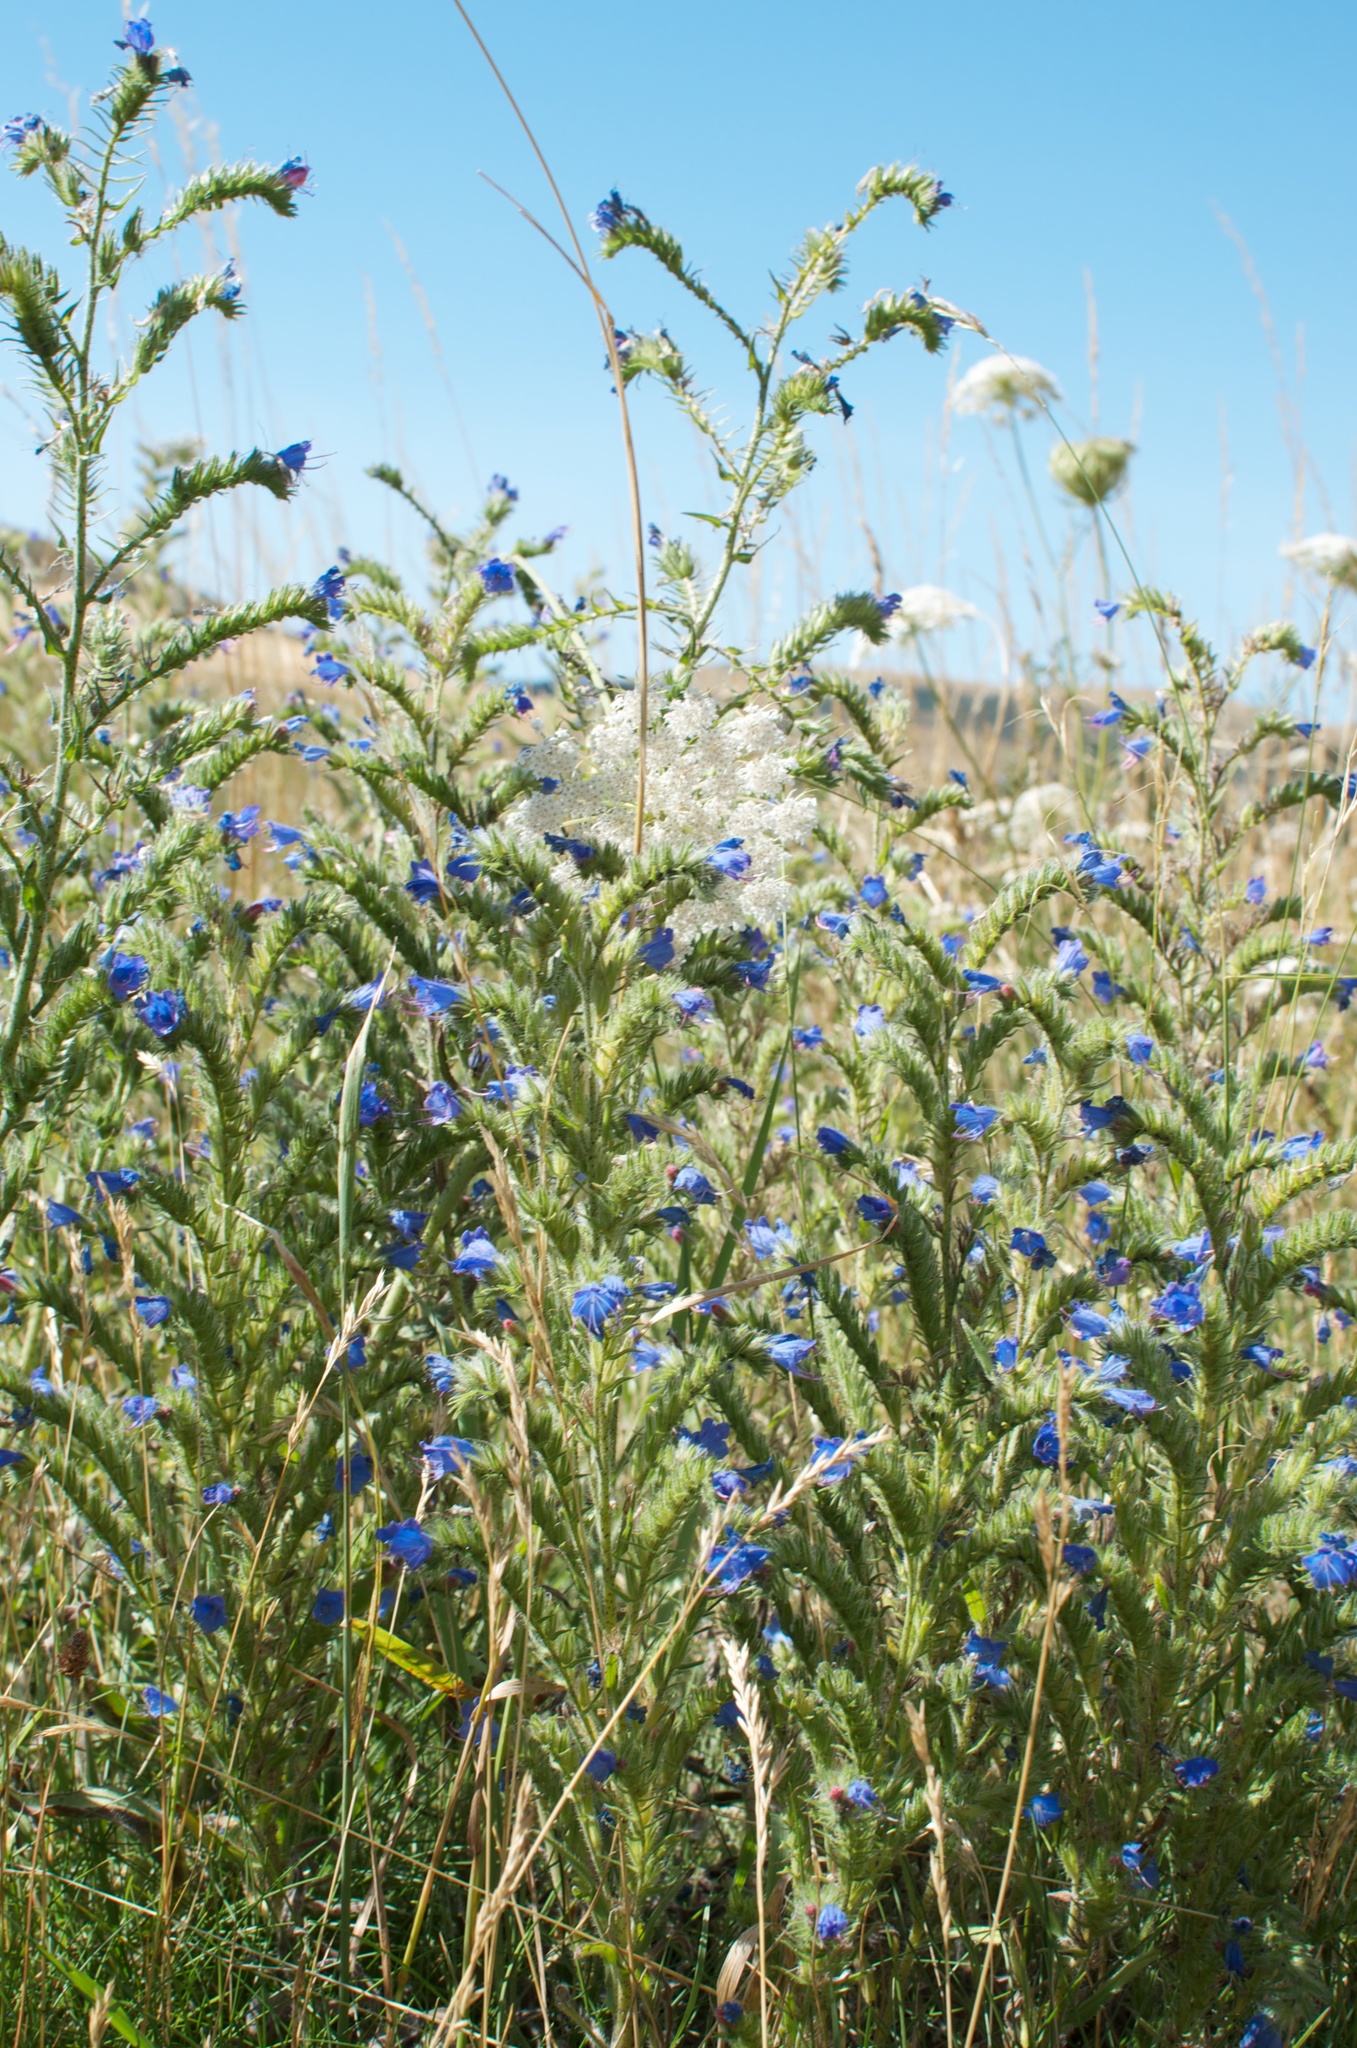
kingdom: Plantae
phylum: Tracheophyta
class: Magnoliopsida
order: Boraginales
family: Boraginaceae
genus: Echium
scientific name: Echium vulgare
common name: Common viper's bugloss
